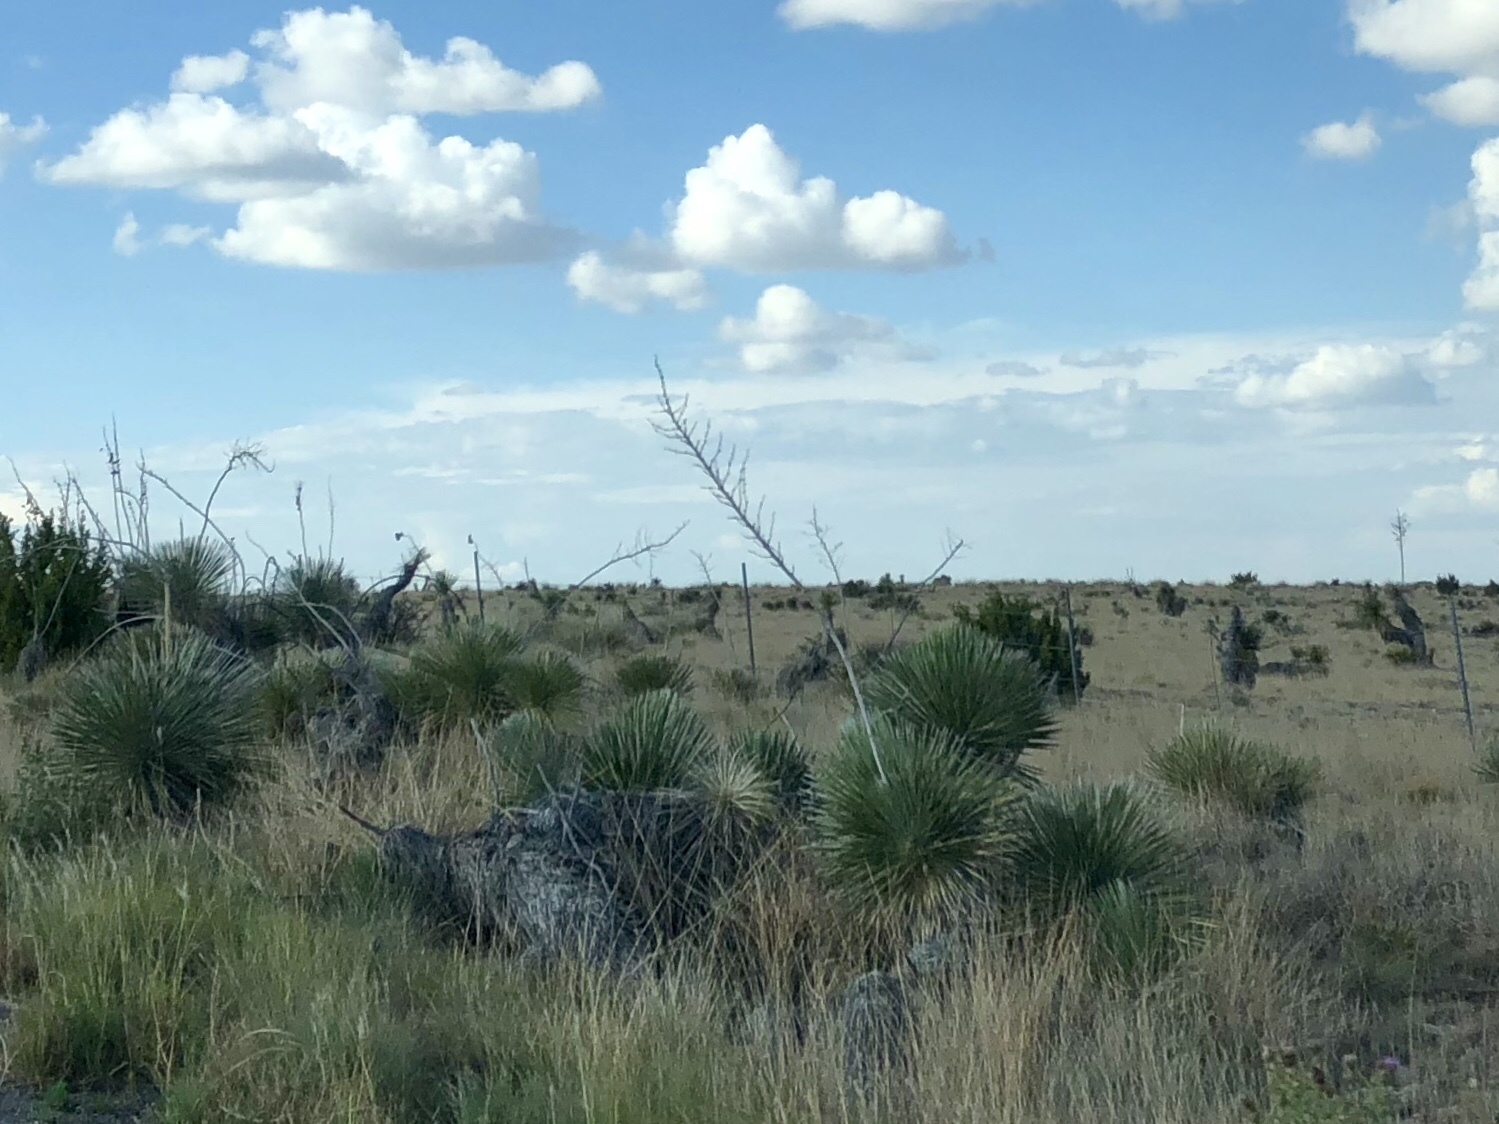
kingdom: Plantae
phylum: Tracheophyta
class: Liliopsida
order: Asparagales
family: Asparagaceae
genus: Yucca
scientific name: Yucca elata
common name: Palmella
